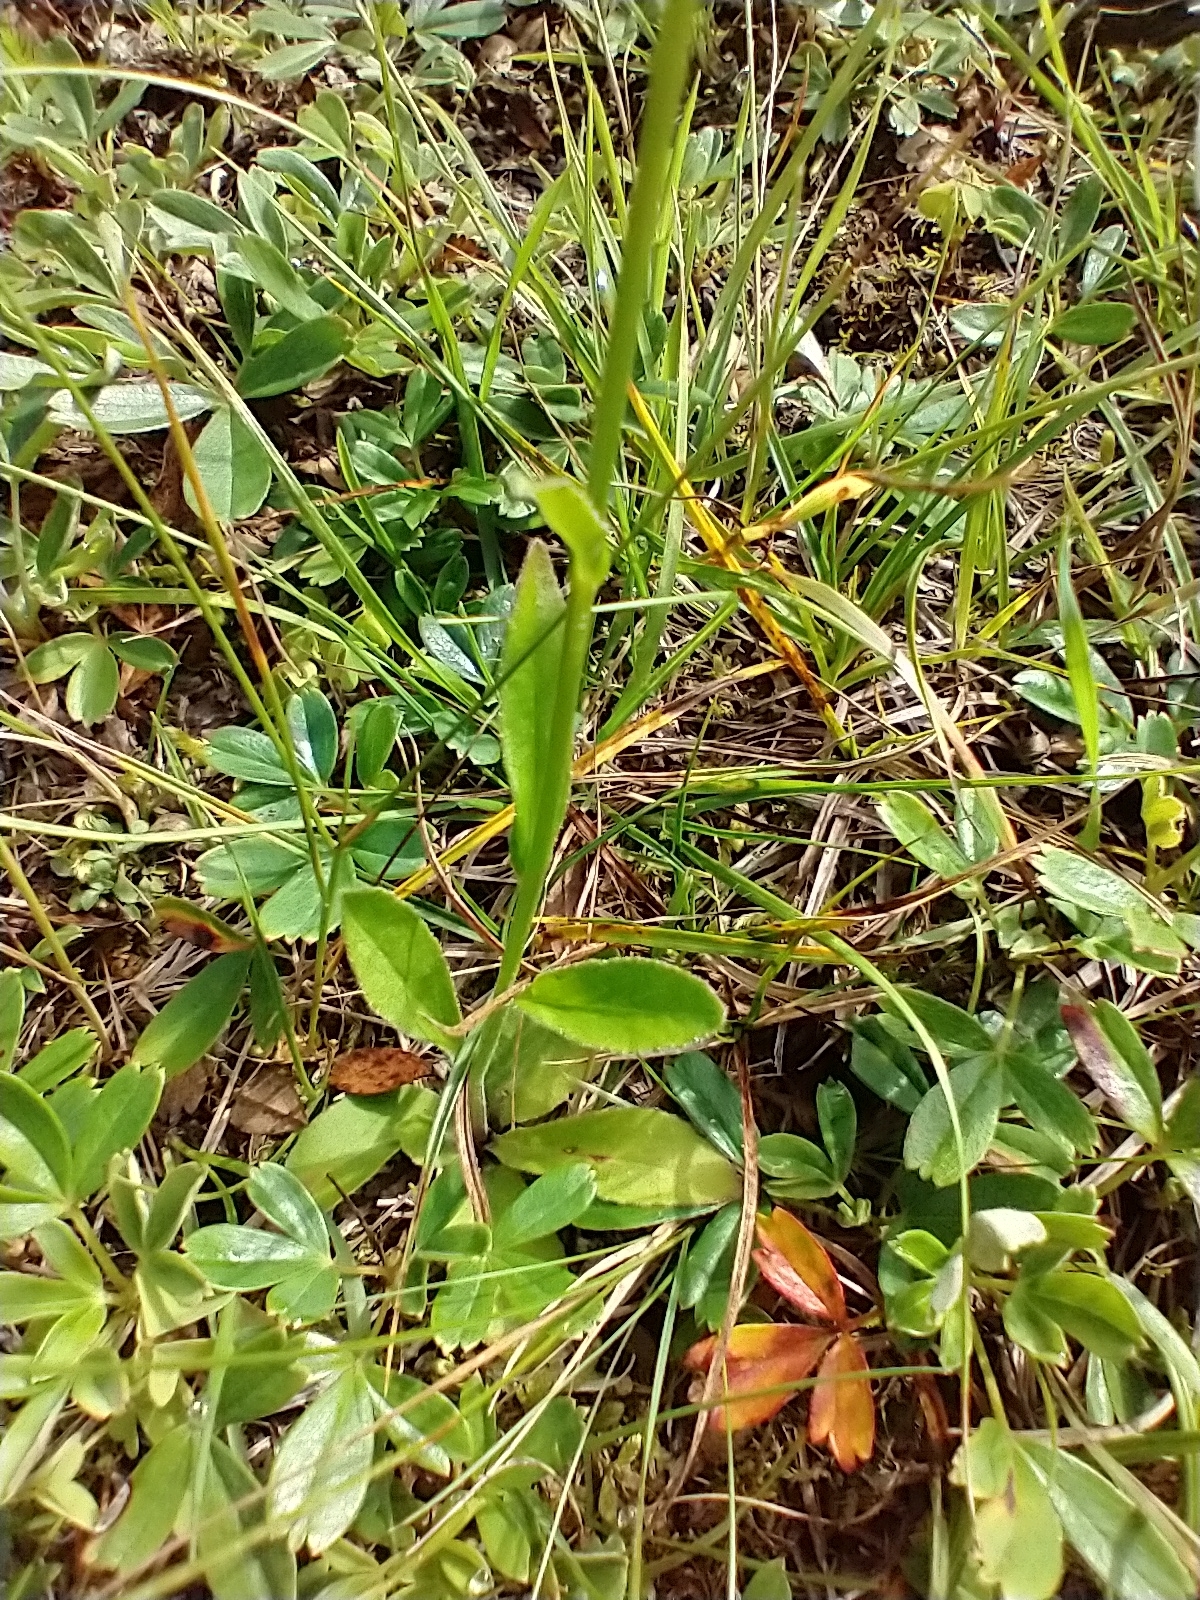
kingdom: Plantae
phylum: Tracheophyta
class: Magnoliopsida
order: Asterales
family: Campanulaceae
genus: Lobelia
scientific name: Lobelia spicata
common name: Pale-spike lobelia
